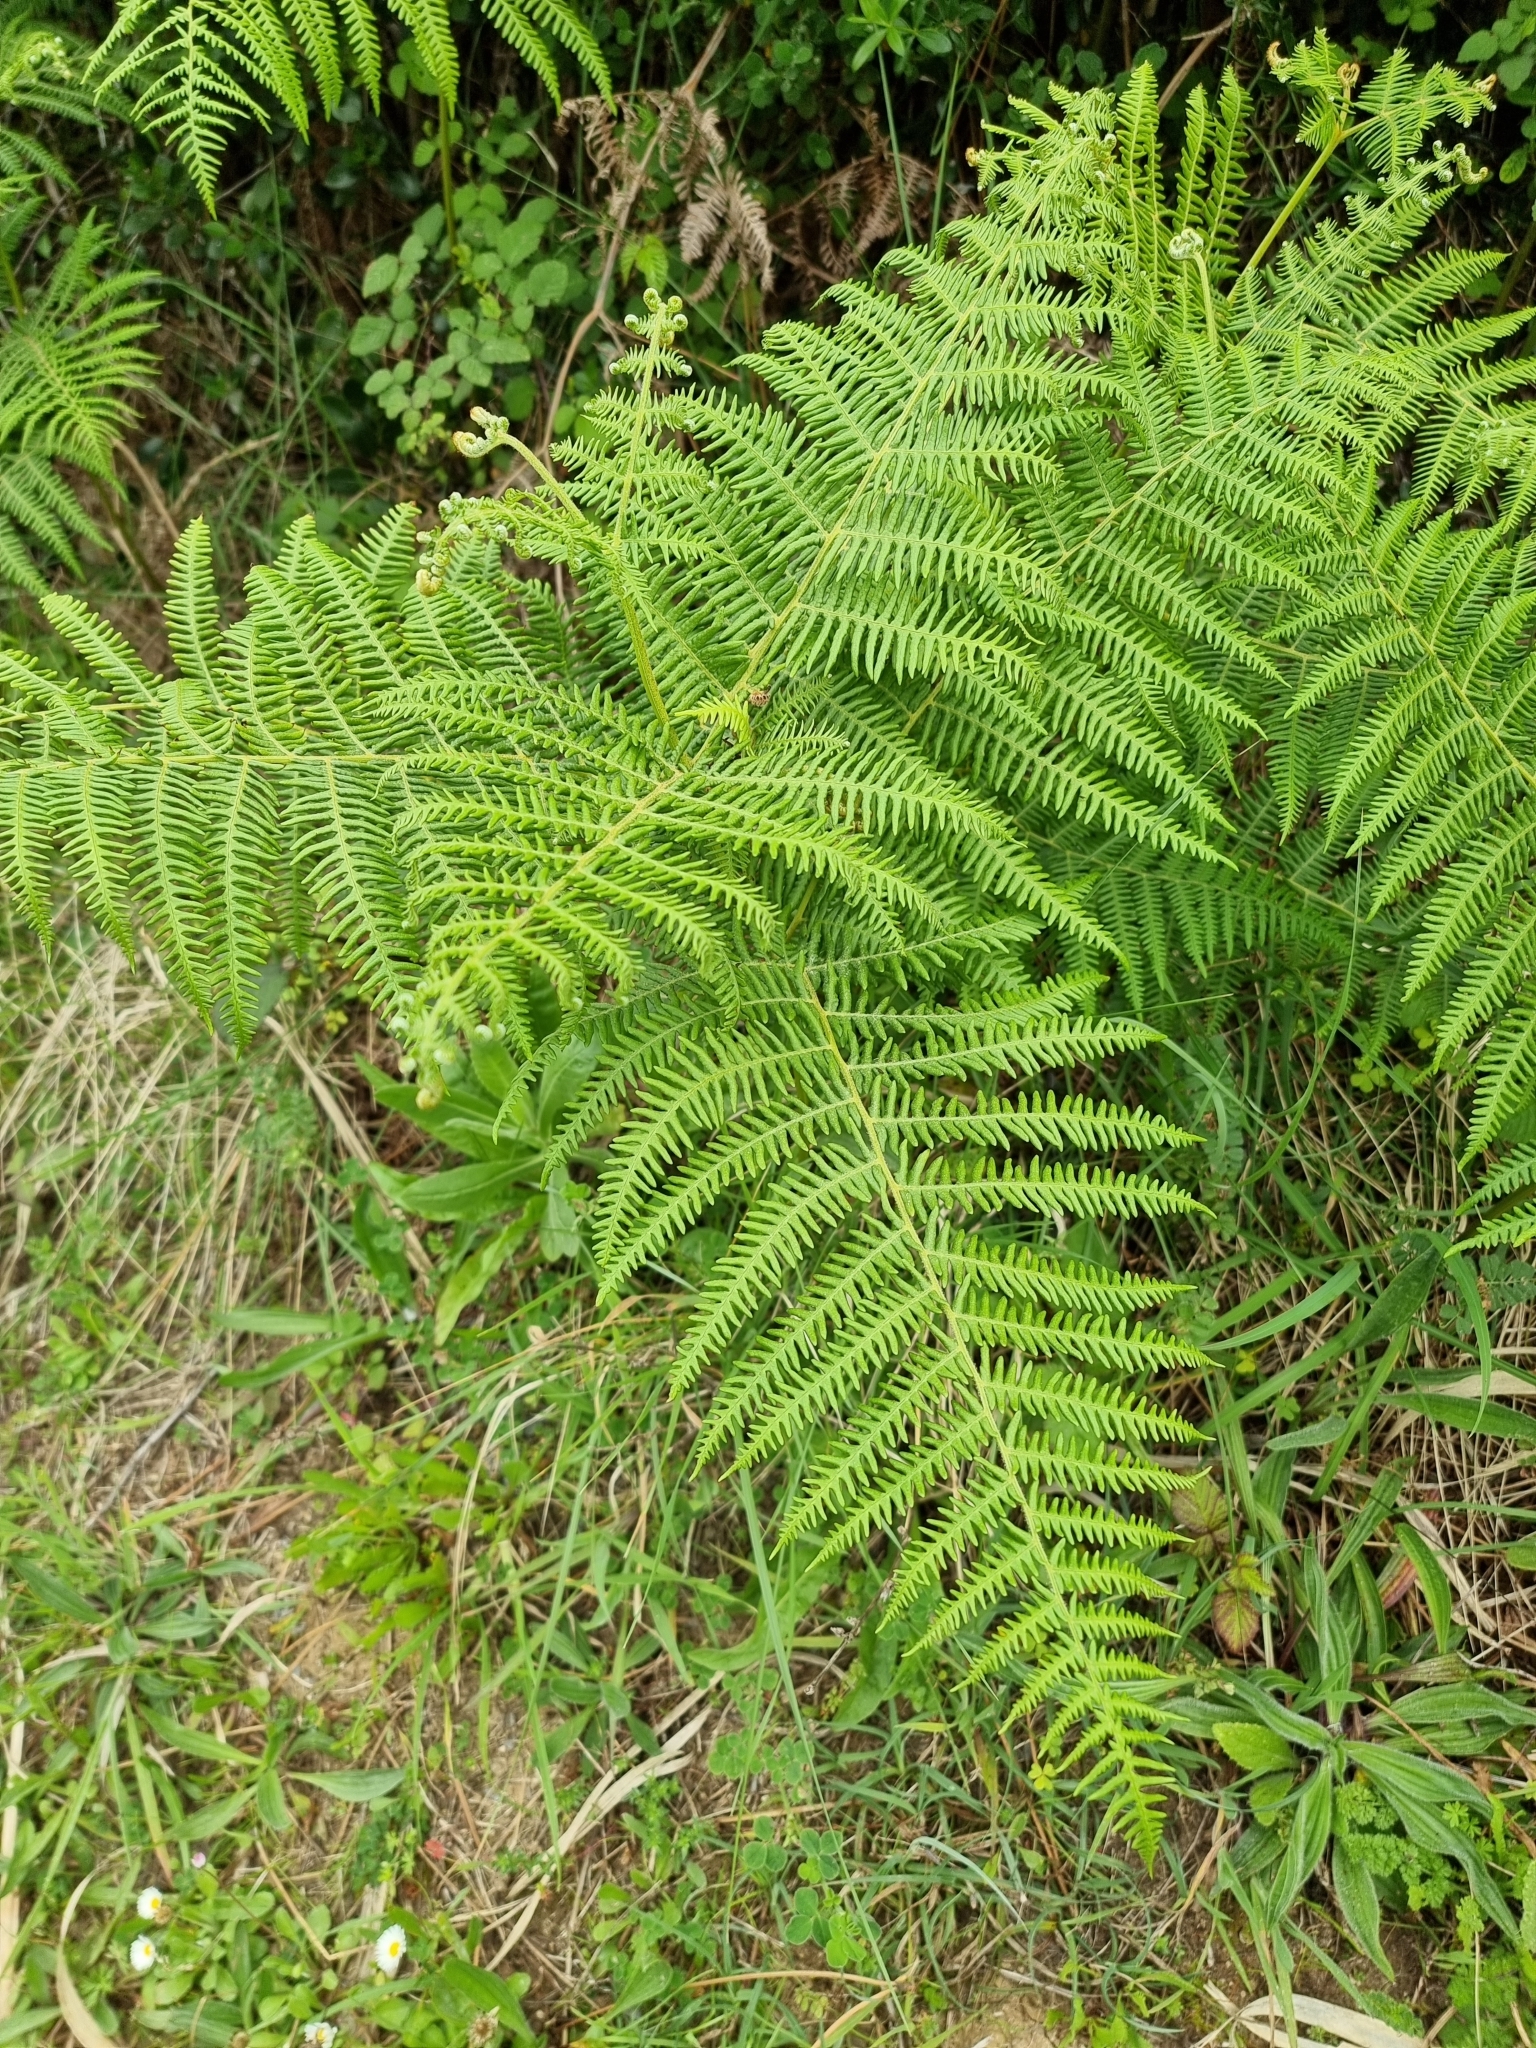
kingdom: Plantae
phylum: Tracheophyta
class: Polypodiopsida
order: Polypodiales
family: Dennstaedtiaceae
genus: Pteridium
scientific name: Pteridium aquilinum
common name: Bracken
